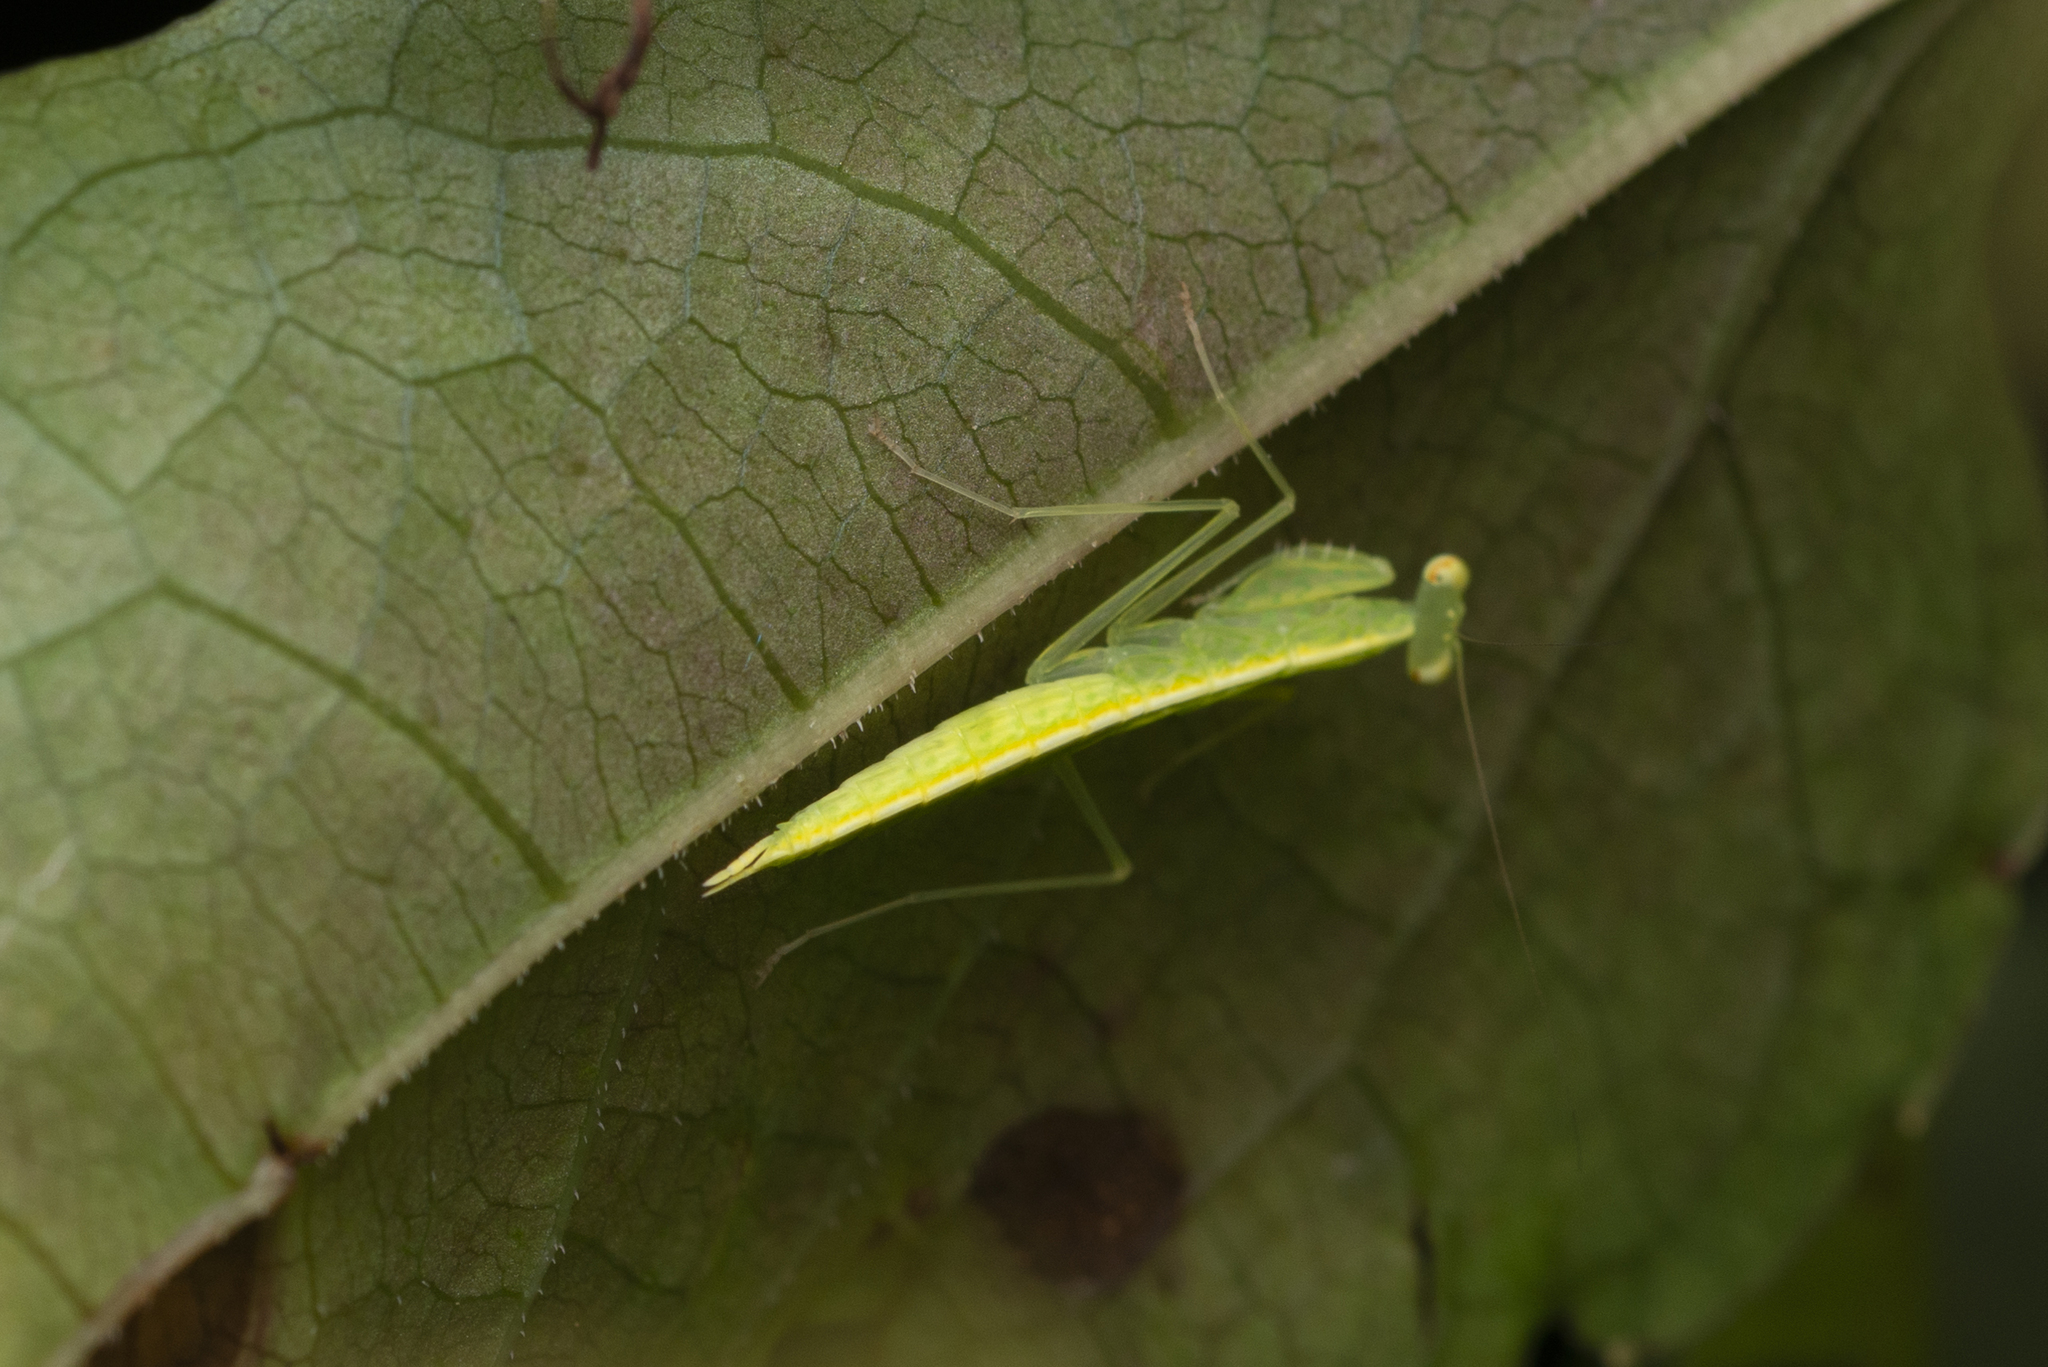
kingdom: Animalia
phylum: Arthropoda
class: Insecta
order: Mantodea
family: Nanomantidae
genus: Tropidomantis
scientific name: Tropidomantis gressitti
